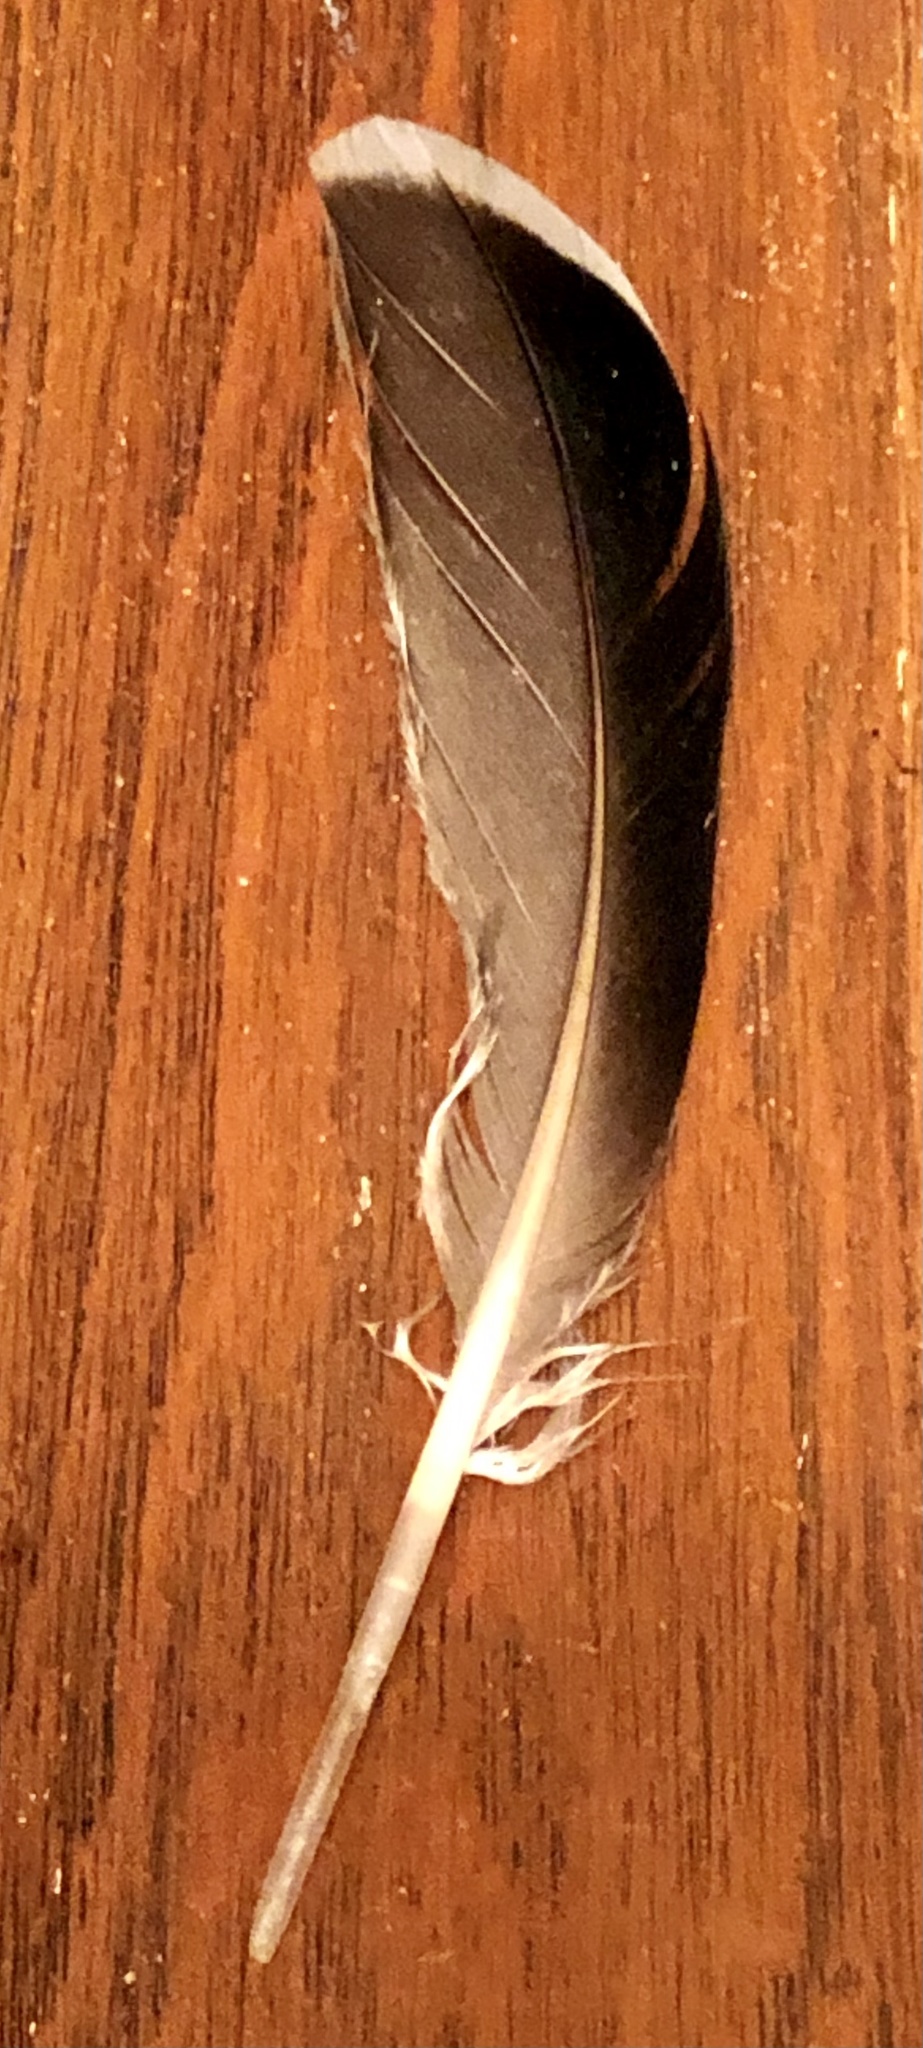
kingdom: Animalia
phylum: Chordata
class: Aves
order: Anseriformes
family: Anatidae
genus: Anas
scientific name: Anas platyrhynchos
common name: Mallard
